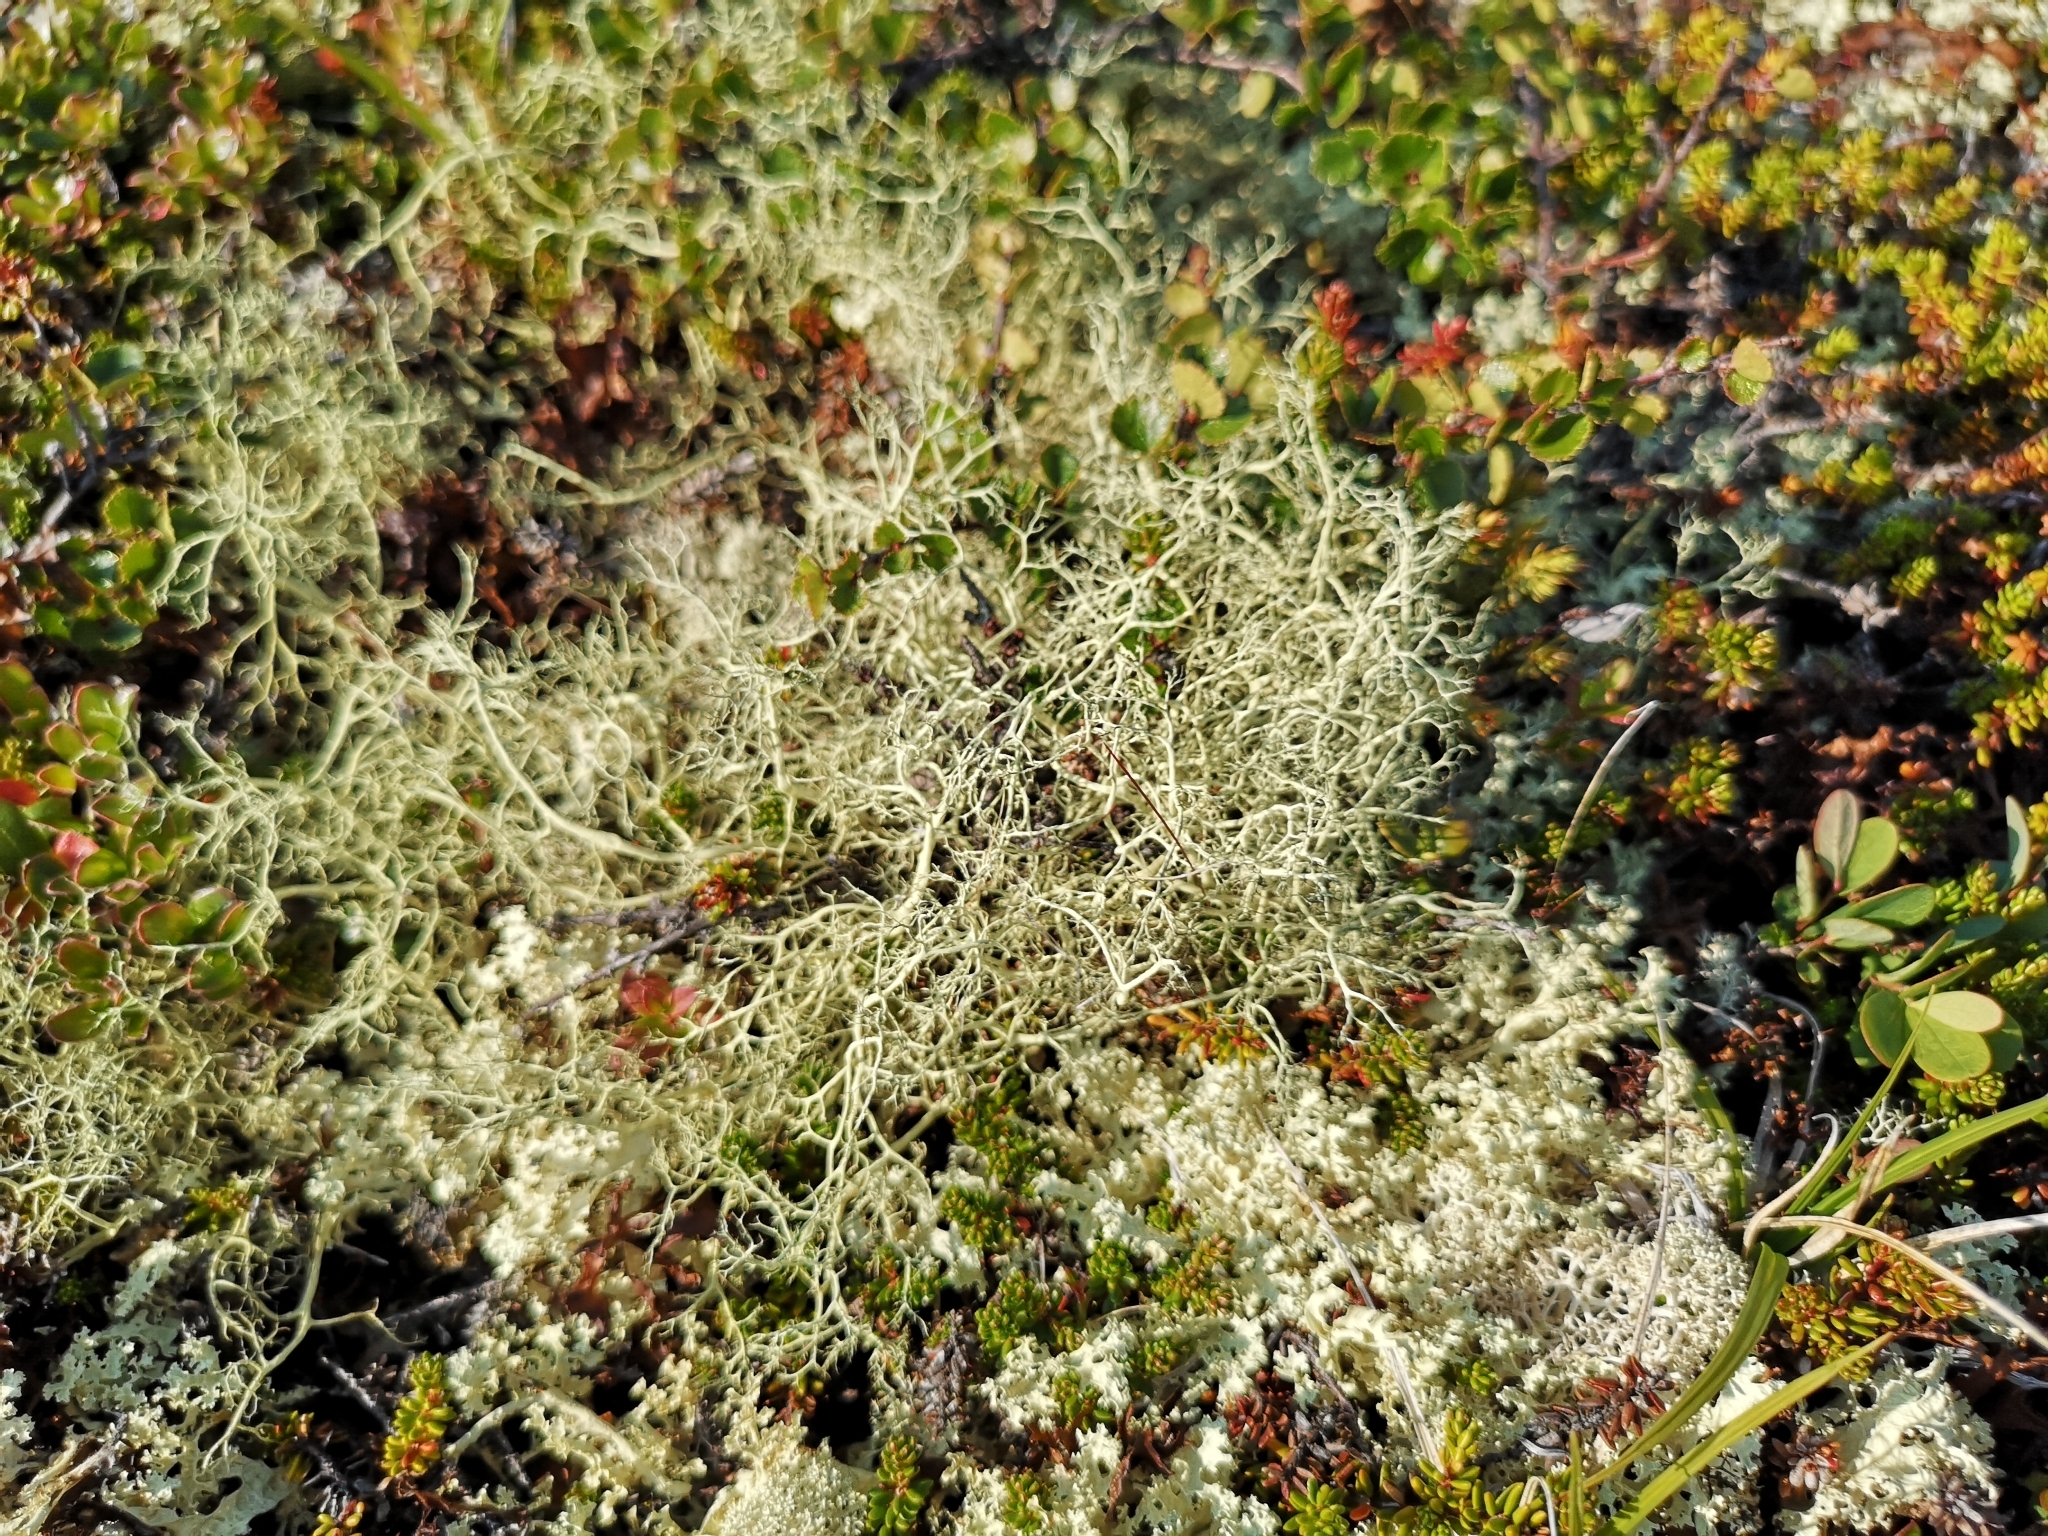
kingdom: Fungi
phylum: Ascomycota
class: Lecanoromycetes
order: Lecanorales
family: Parmeliaceae
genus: Alectoria
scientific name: Alectoria ochroleuca
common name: Alpine sulphur-tresses
